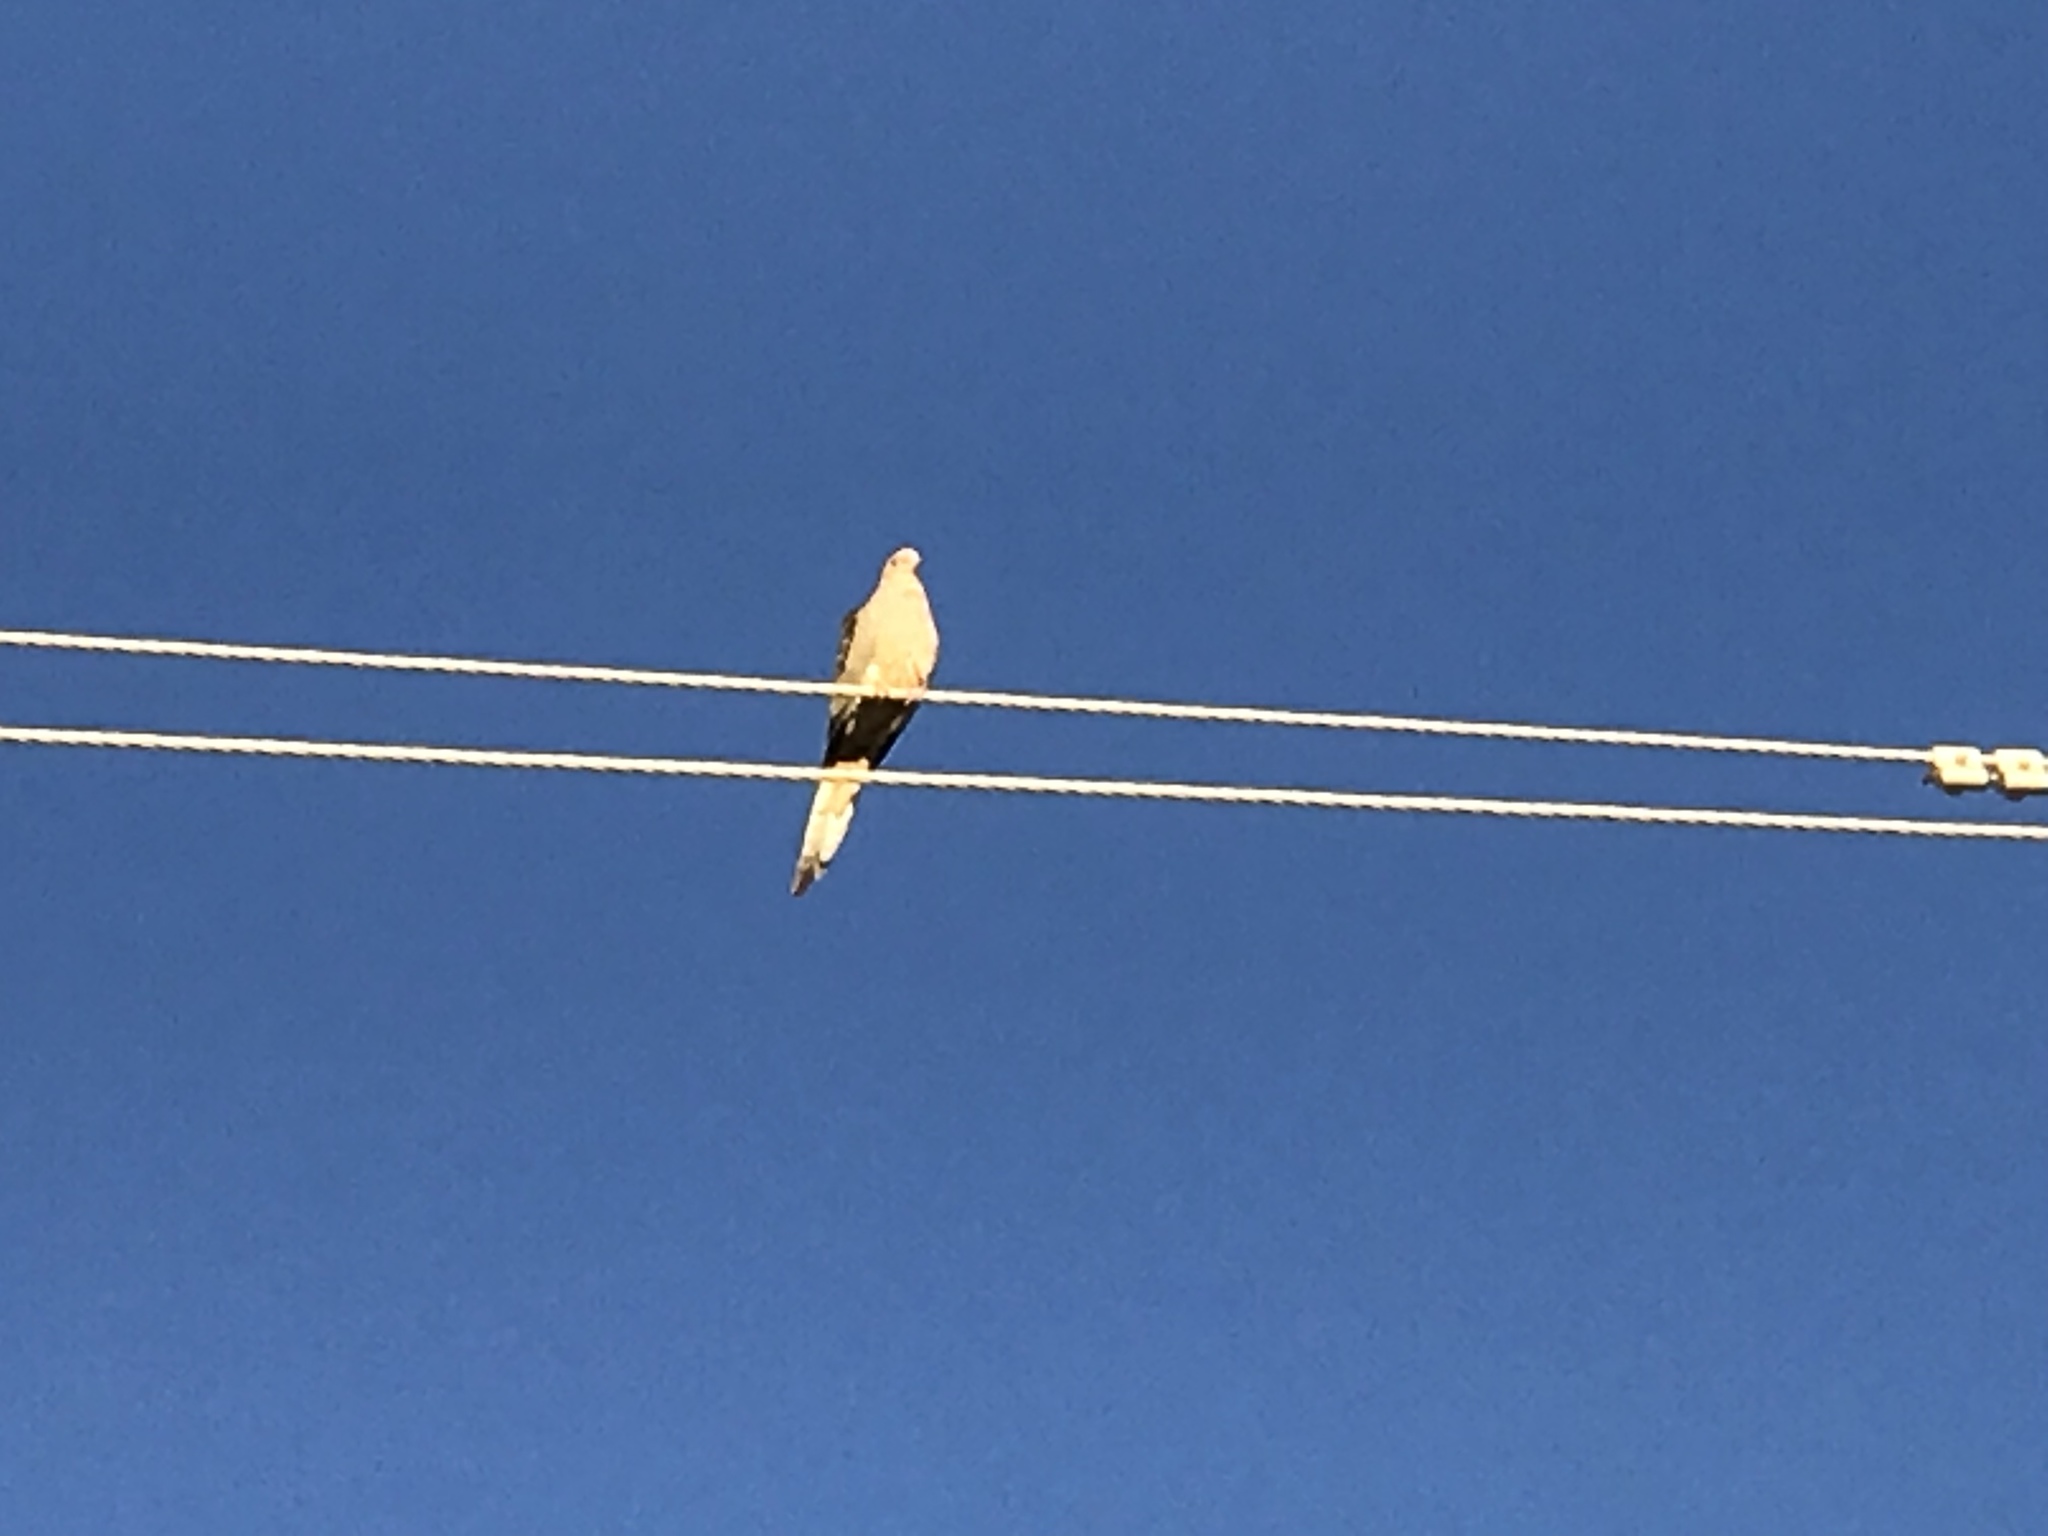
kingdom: Animalia
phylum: Chordata
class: Aves
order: Columbiformes
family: Columbidae
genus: Zenaida
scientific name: Zenaida macroura
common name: Mourning dove
